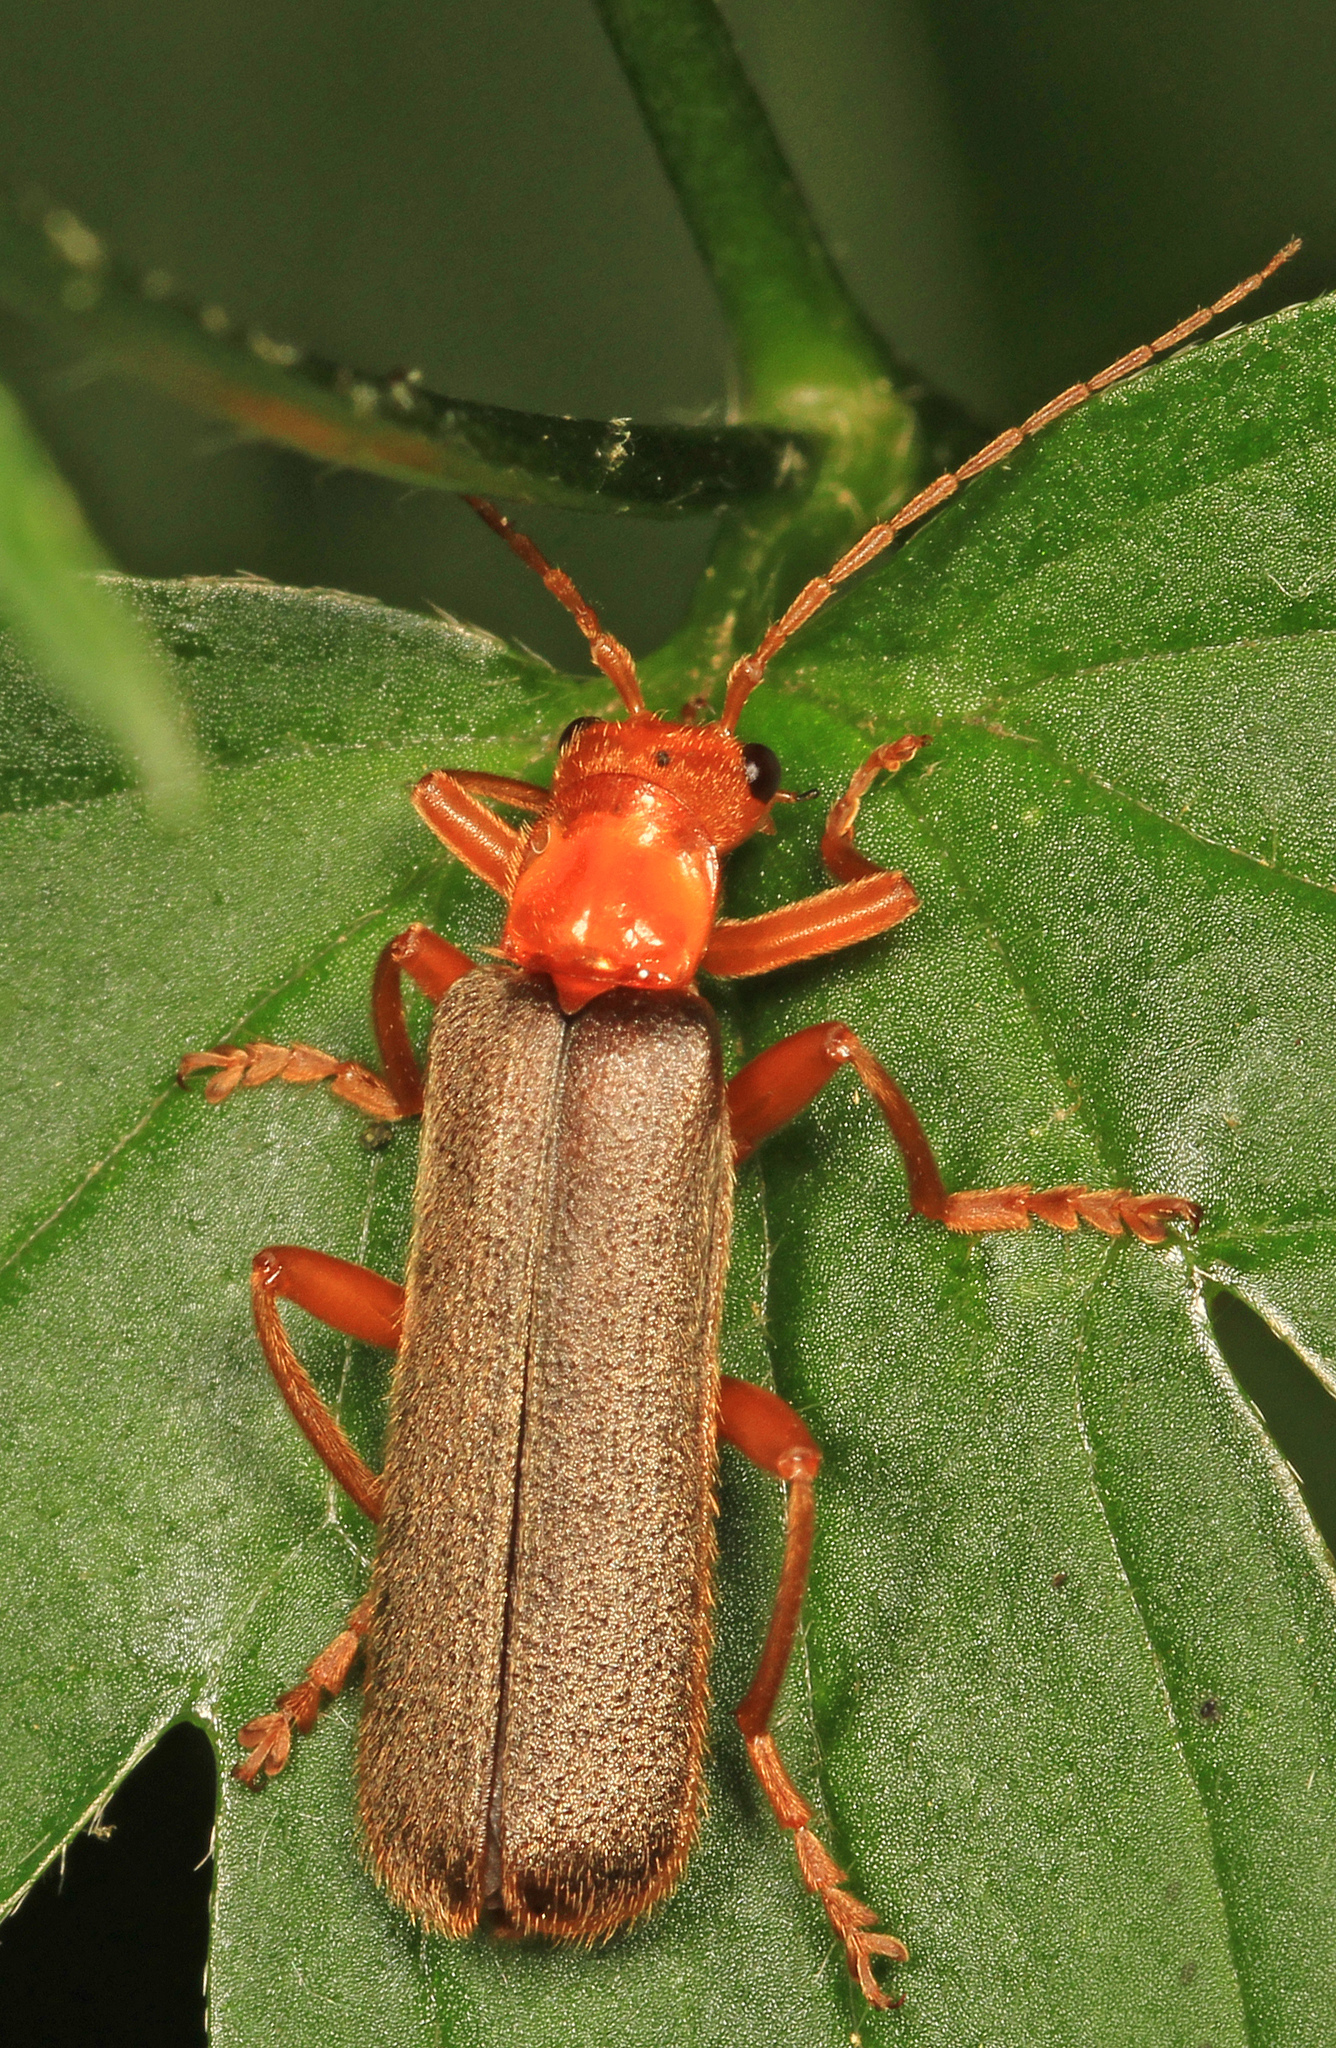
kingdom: Animalia
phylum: Arthropoda
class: Insecta
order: Coleoptera
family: Cantharidae
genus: Pacificanthia
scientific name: Pacificanthia rotundicollis
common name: Brown leatherwing beetle
